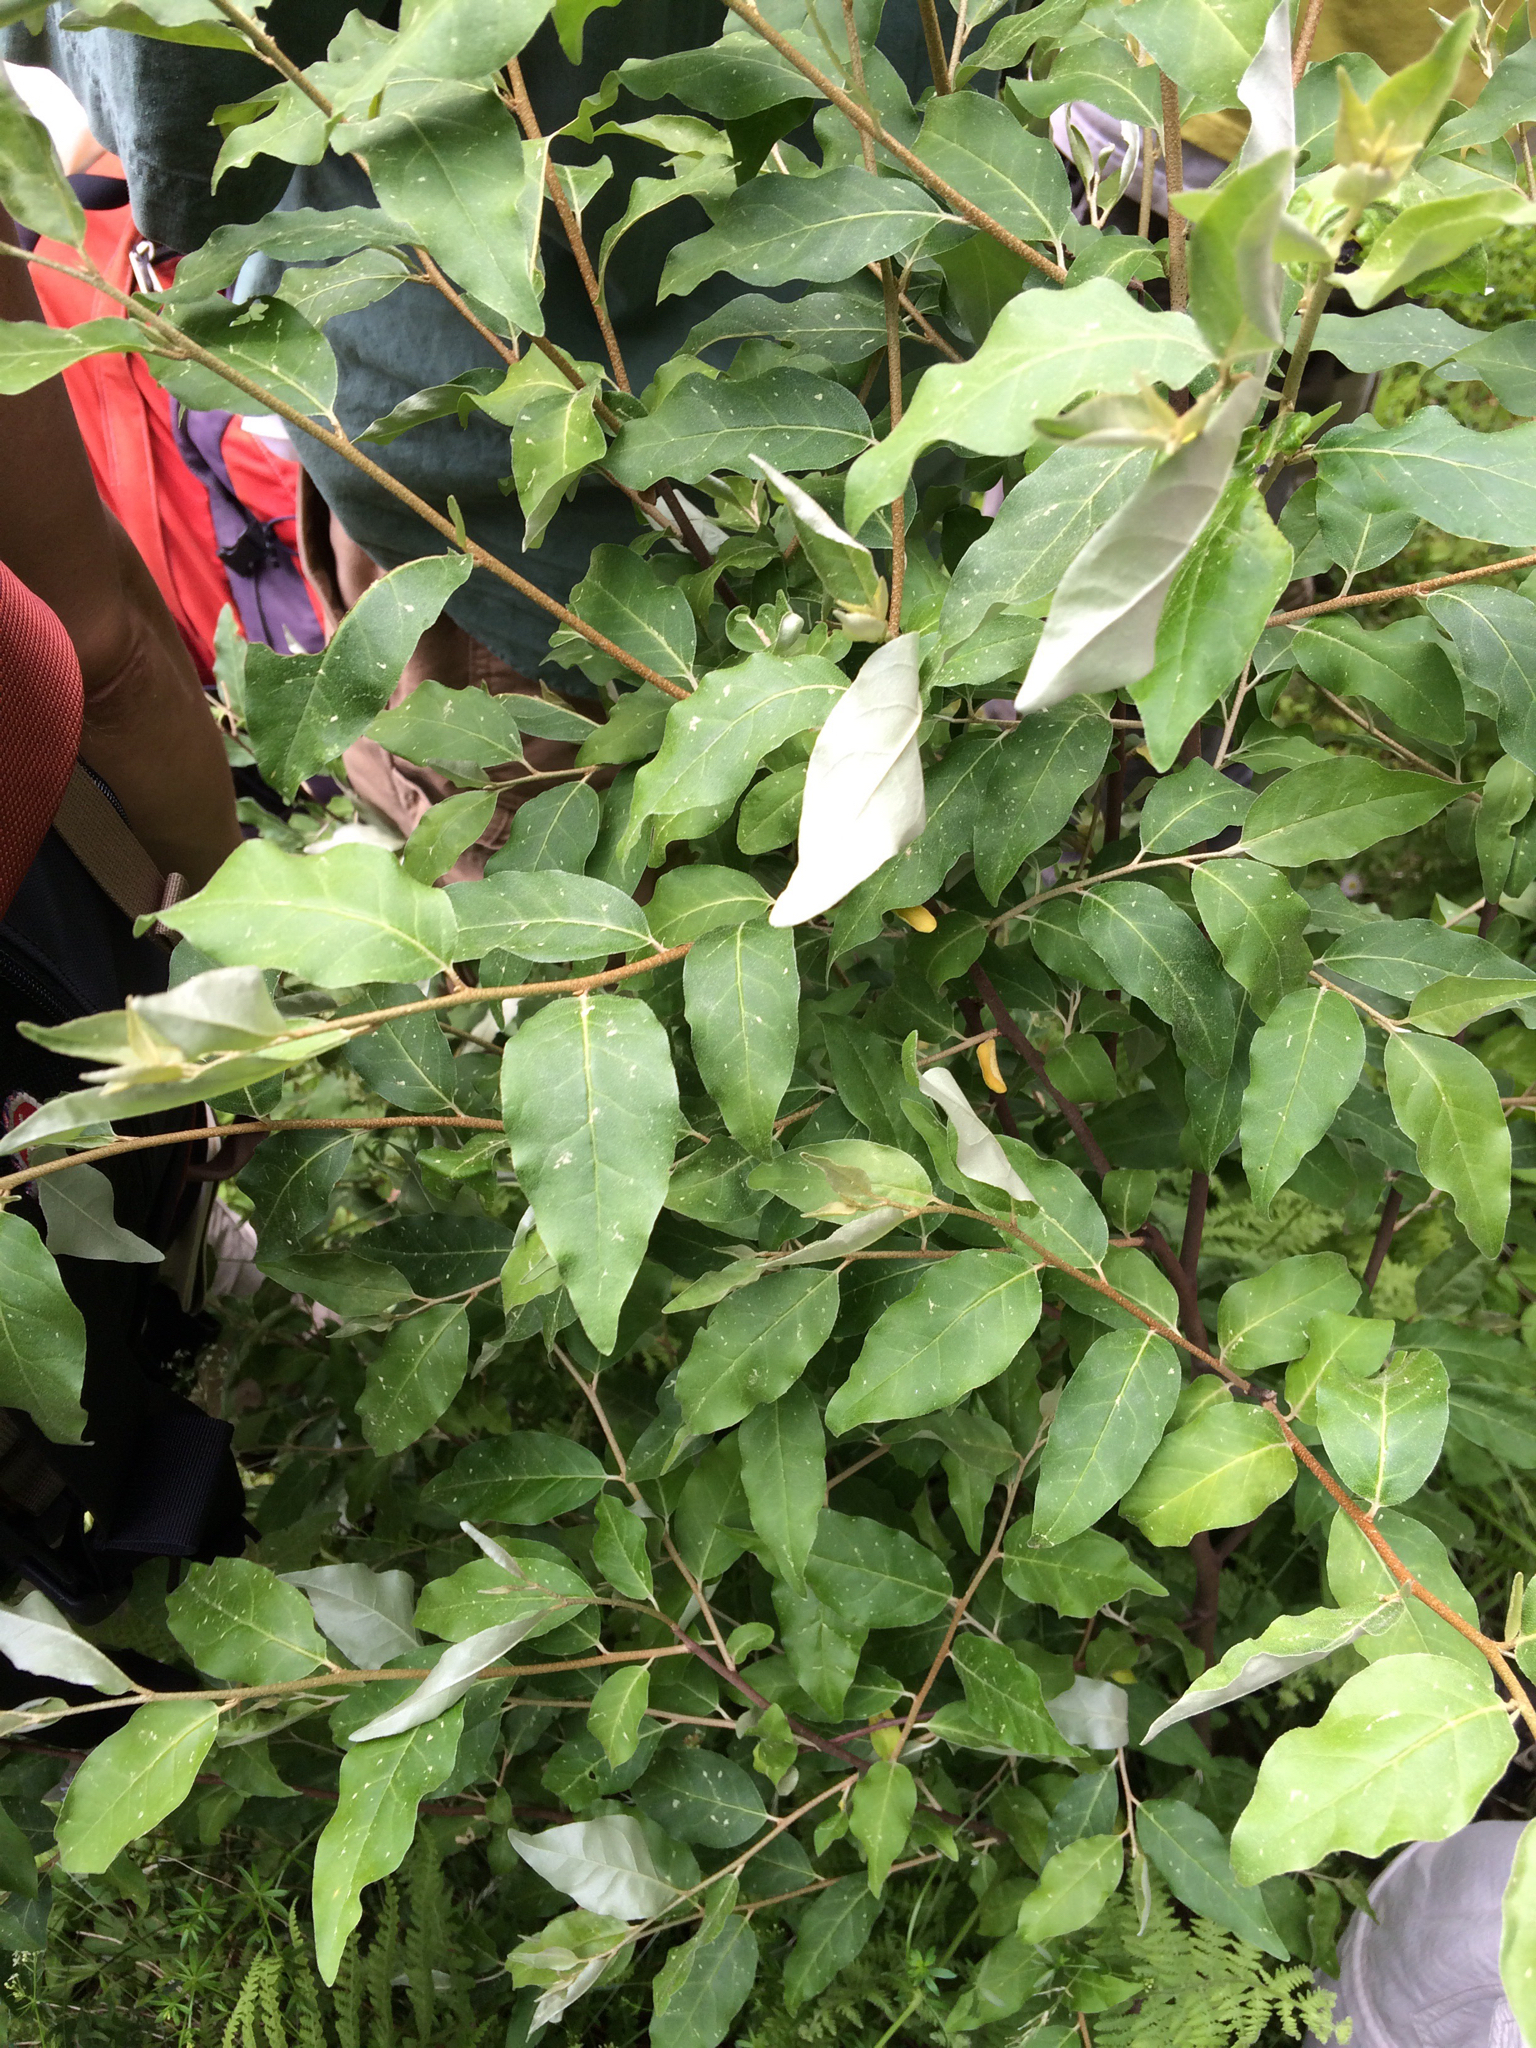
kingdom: Plantae
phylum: Tracheophyta
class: Magnoliopsida
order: Rosales
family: Elaeagnaceae
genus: Elaeagnus
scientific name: Elaeagnus umbellata
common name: Autumn olive
